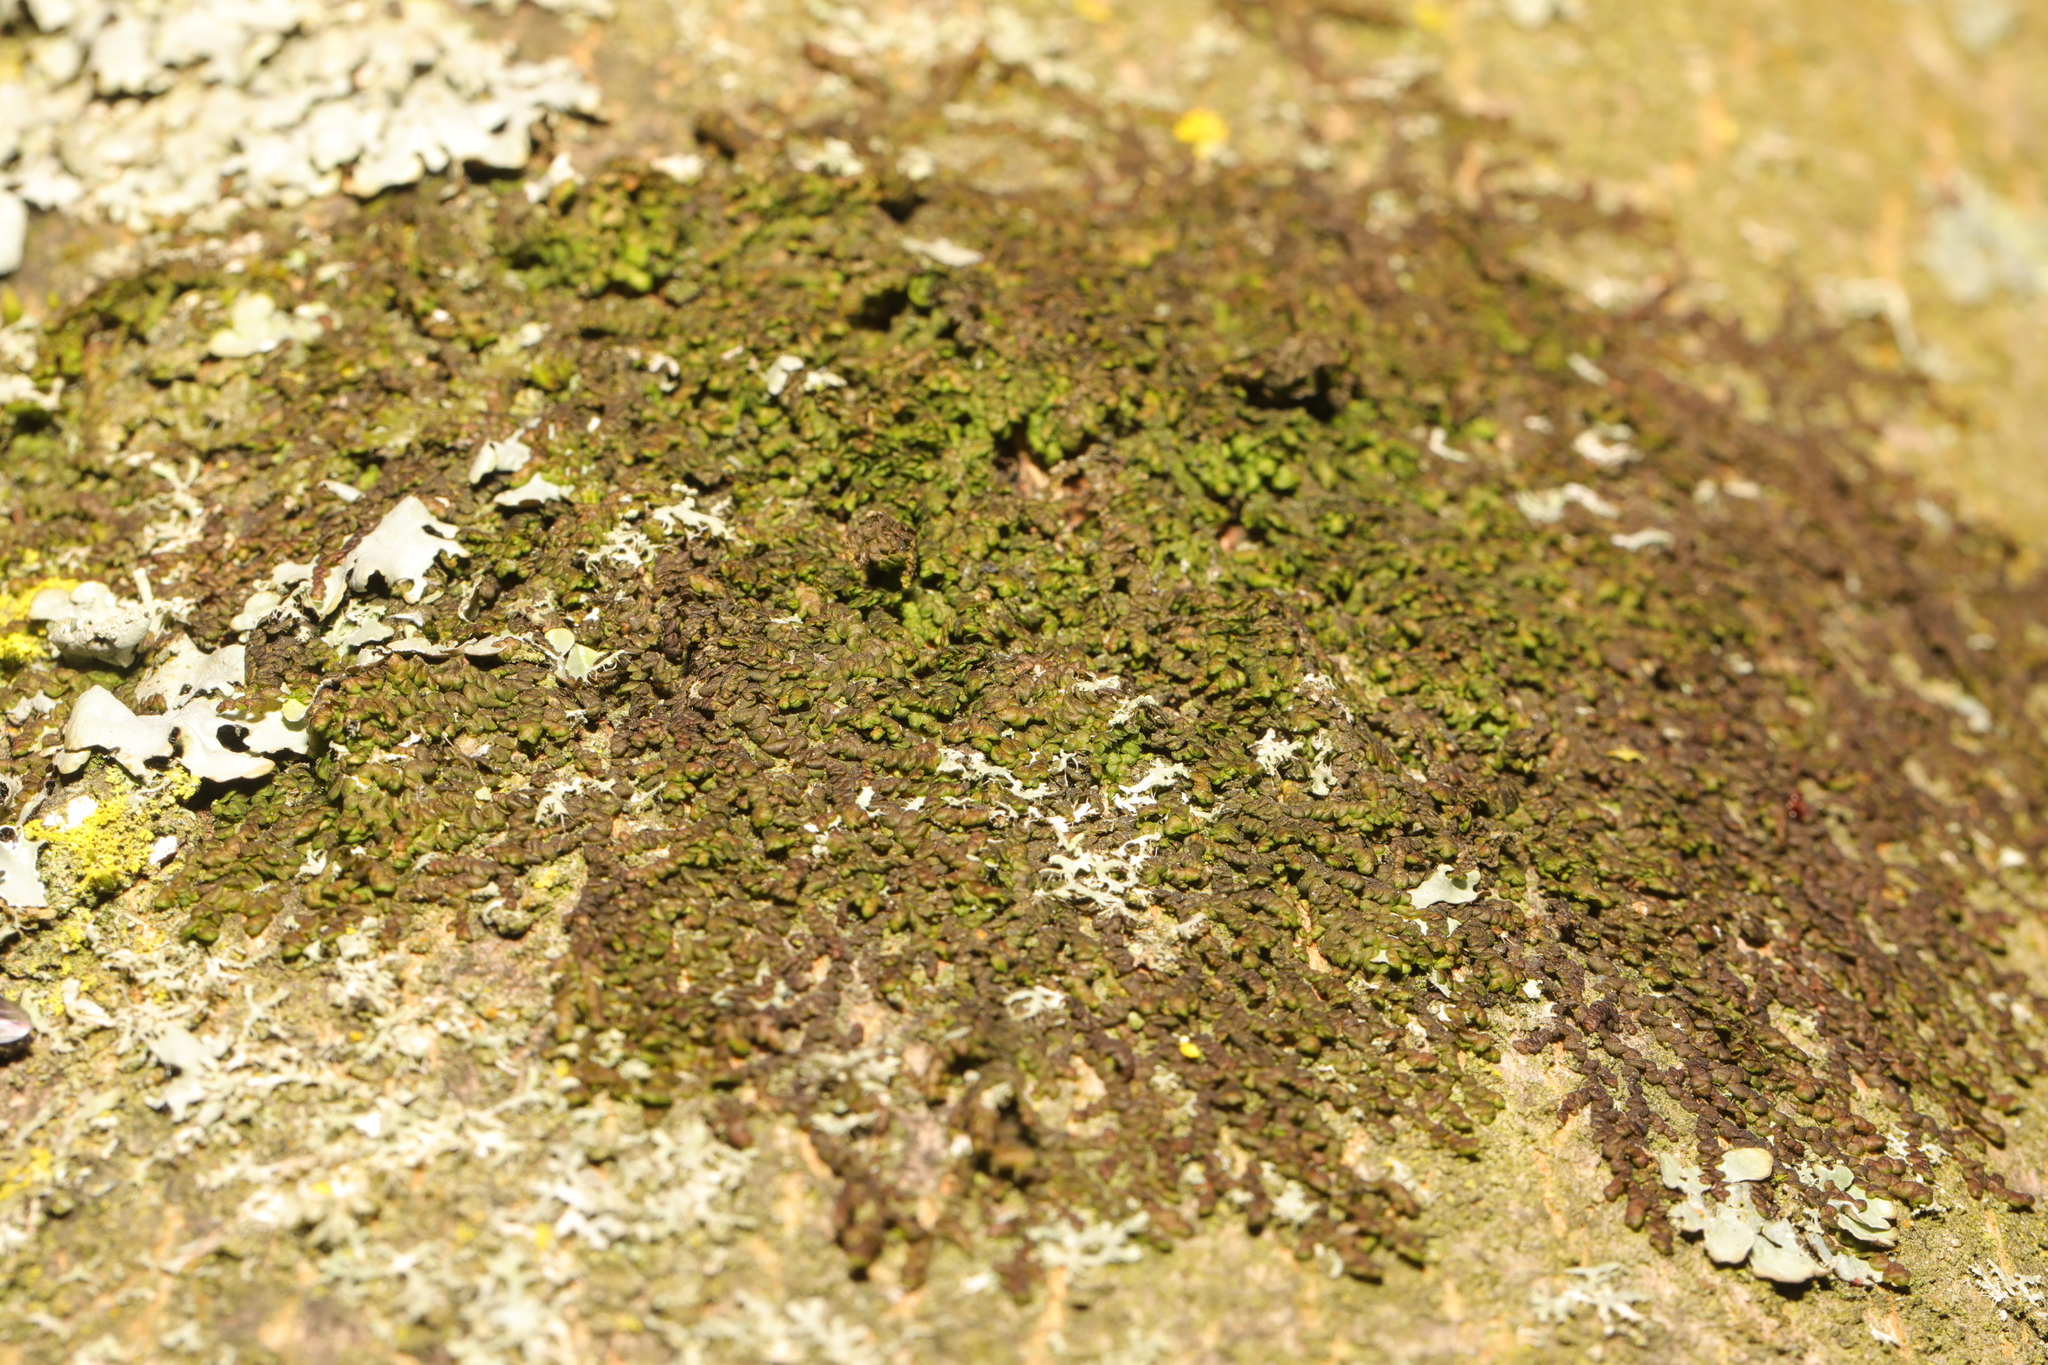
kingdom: Plantae
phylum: Marchantiophyta
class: Jungermanniopsida
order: Porellales
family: Frullaniaceae
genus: Frullania
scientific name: Frullania dilatata
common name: Dilated scalewort
